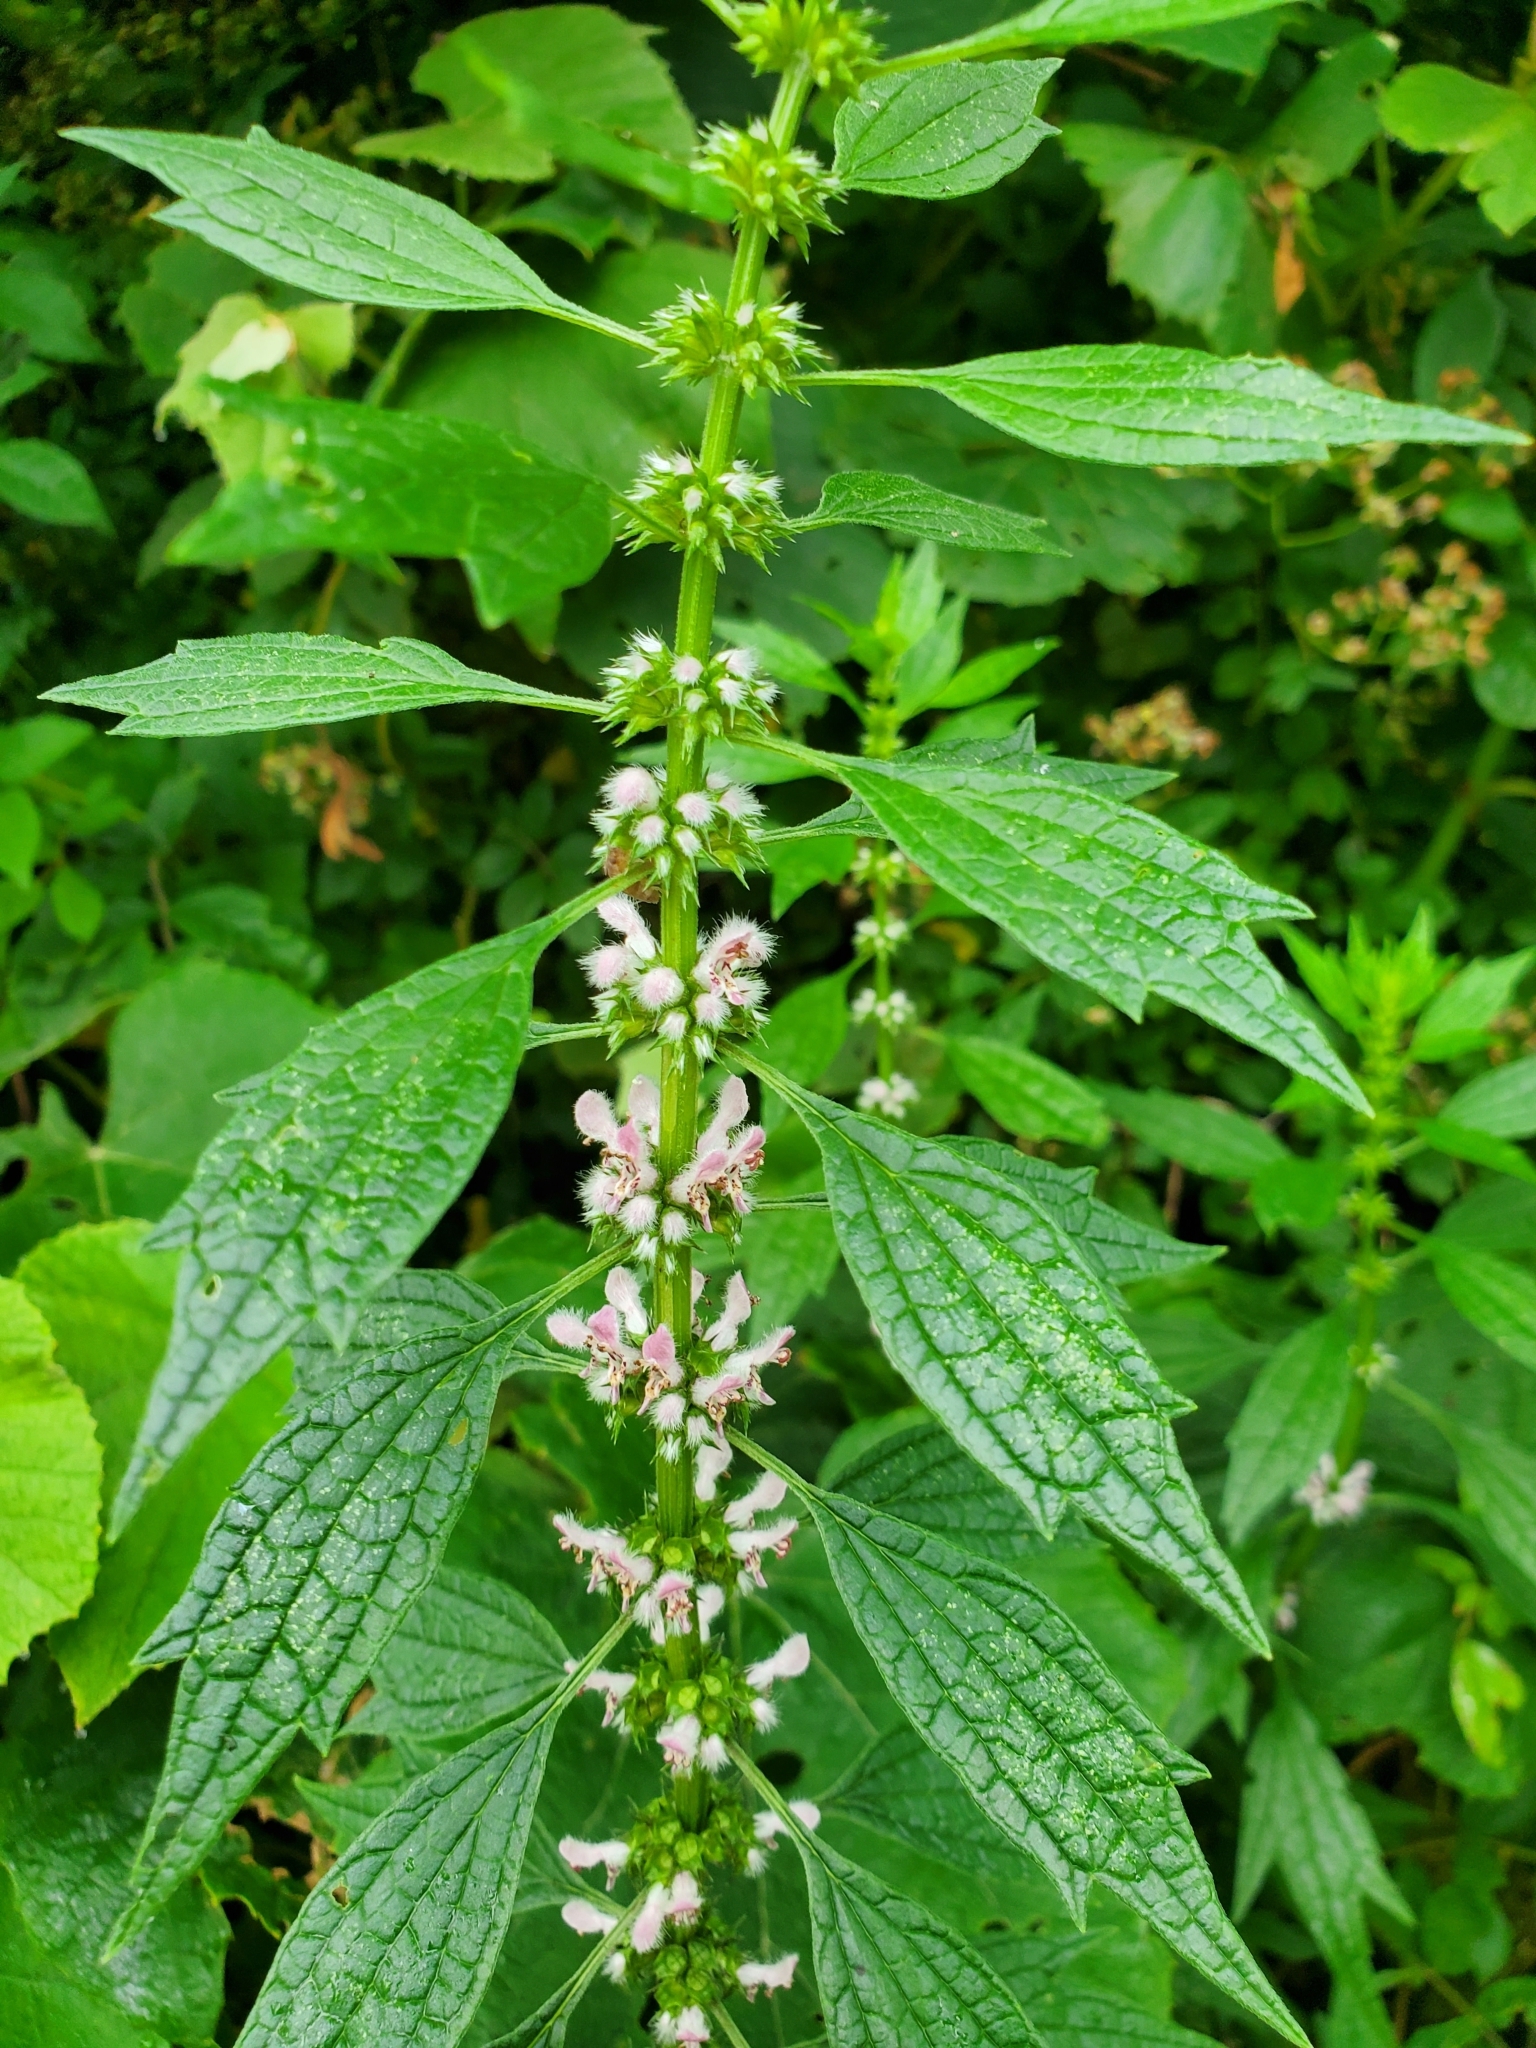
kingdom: Plantae
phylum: Tracheophyta
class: Magnoliopsida
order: Lamiales
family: Lamiaceae
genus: Leonurus
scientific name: Leonurus cardiaca
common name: Motherwort
